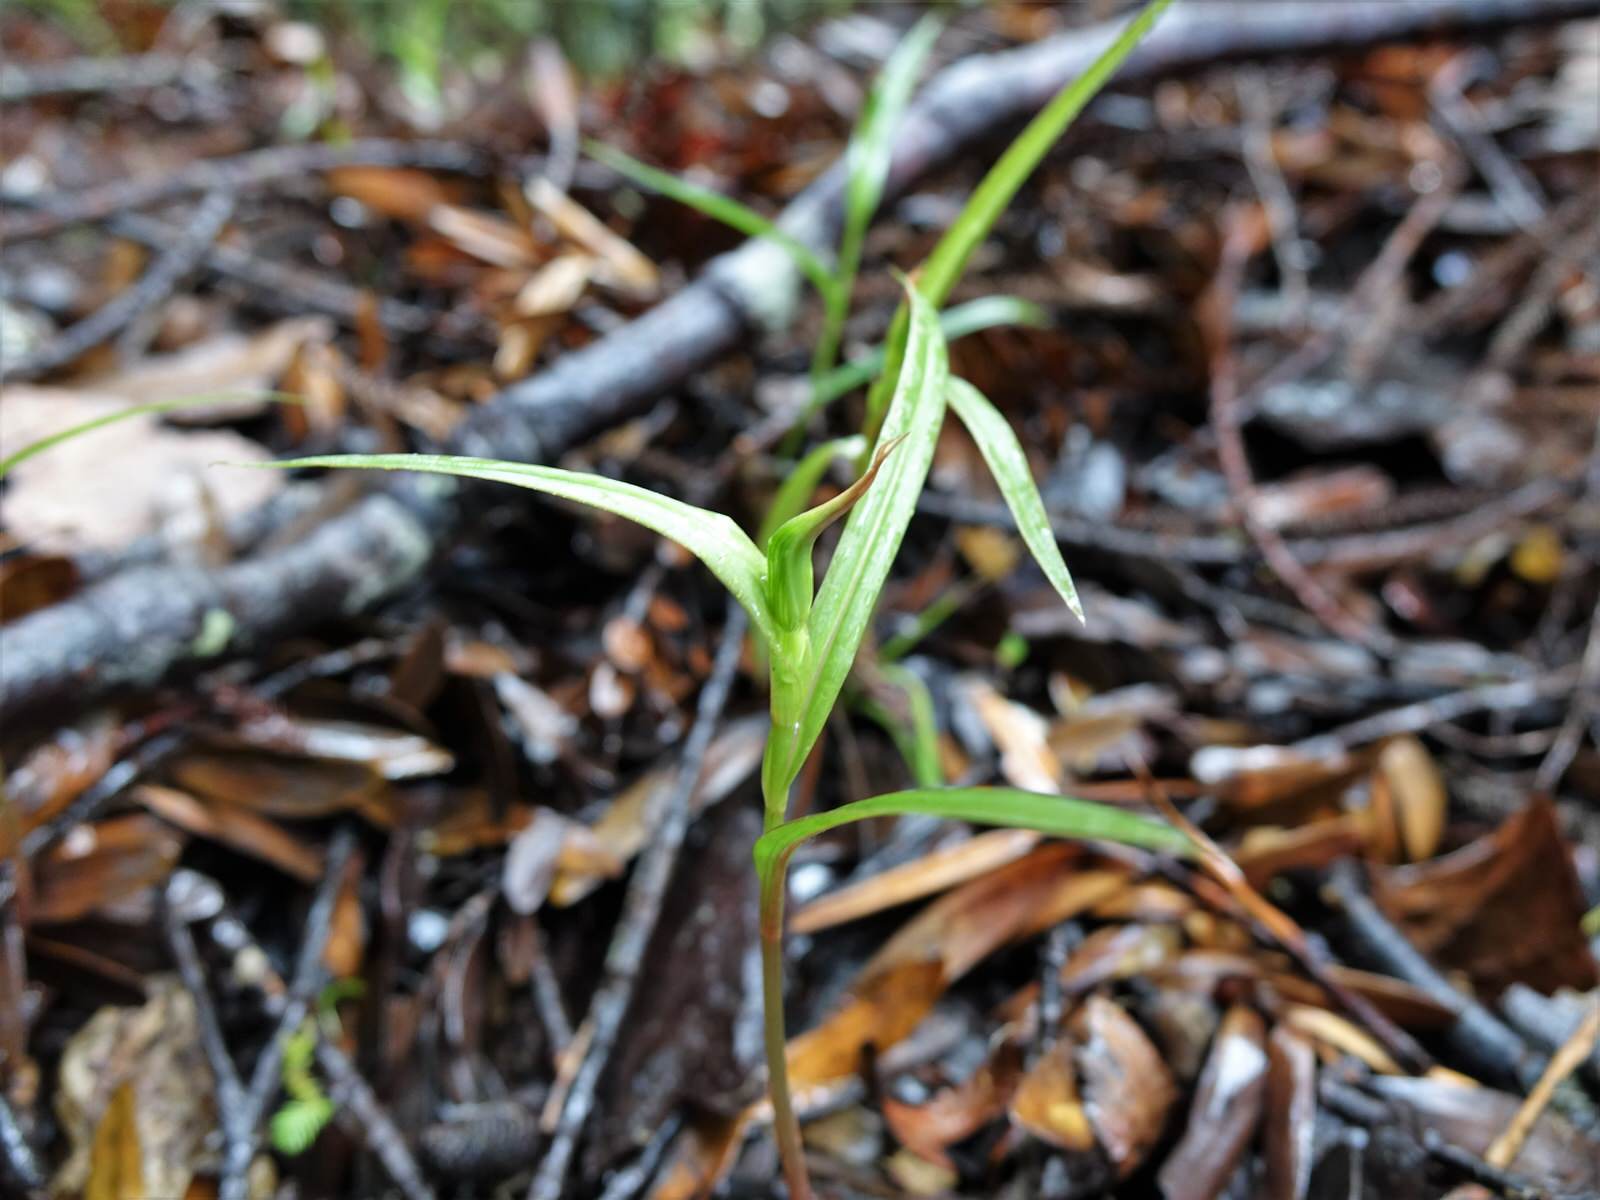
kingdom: Plantae
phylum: Tracheophyta
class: Liliopsida
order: Asparagales
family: Orchidaceae
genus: Pterostylis
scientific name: Pterostylis agathicola
